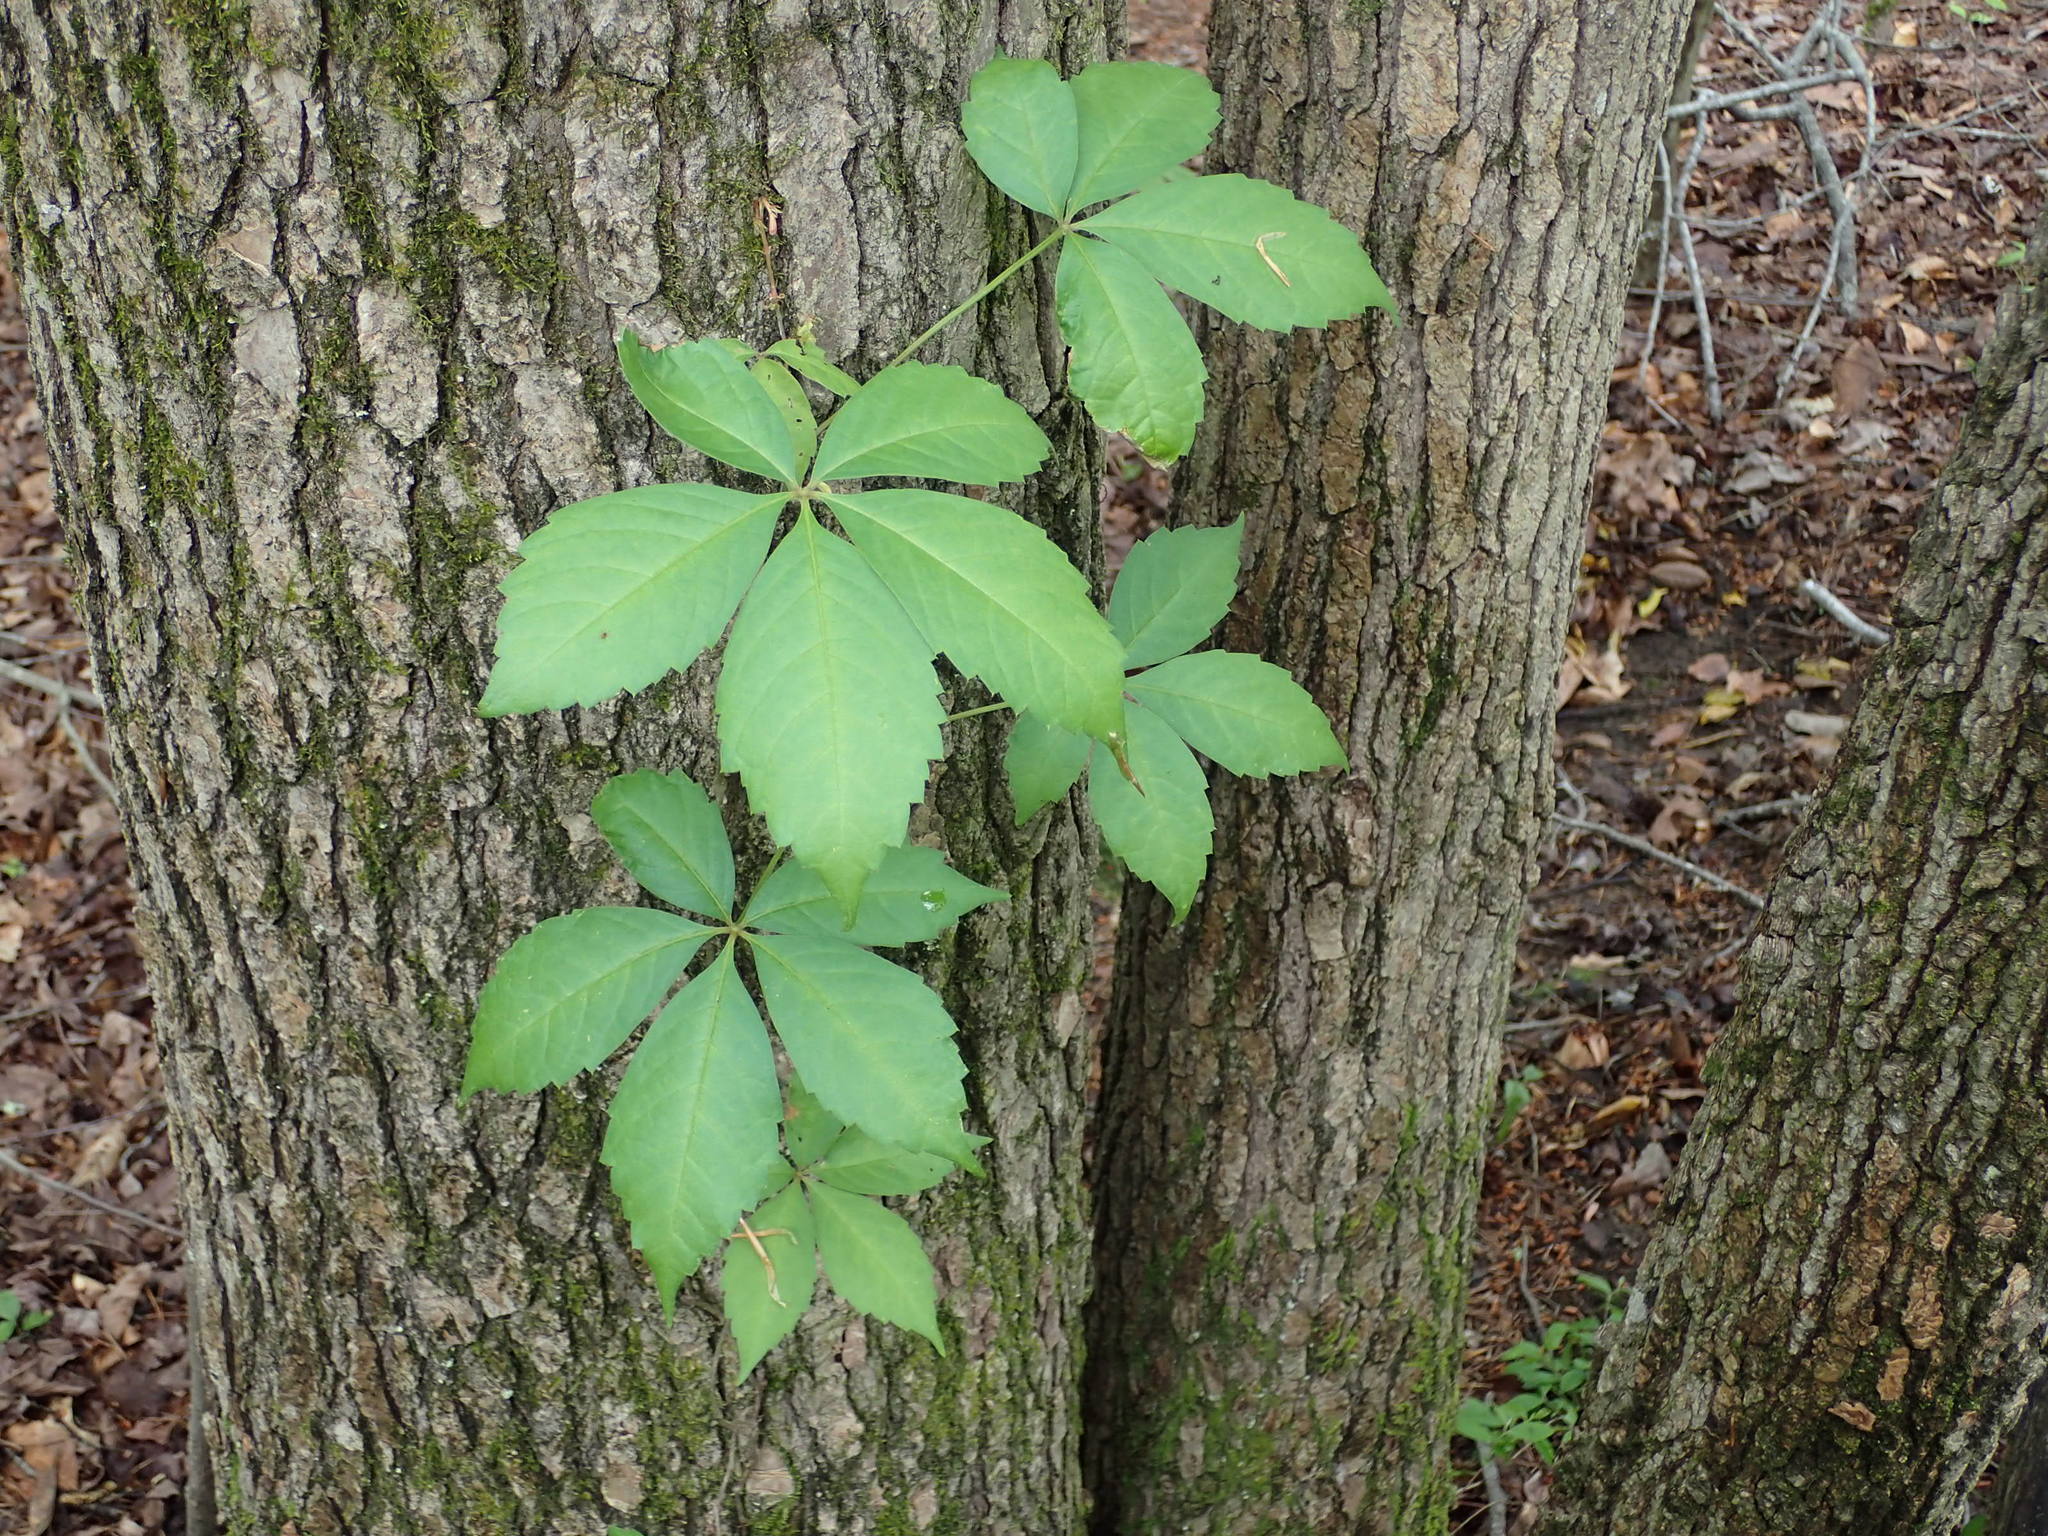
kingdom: Plantae
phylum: Tracheophyta
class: Magnoliopsida
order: Vitales
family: Vitaceae
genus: Parthenocissus
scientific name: Parthenocissus quinquefolia
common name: Virginia-creeper
